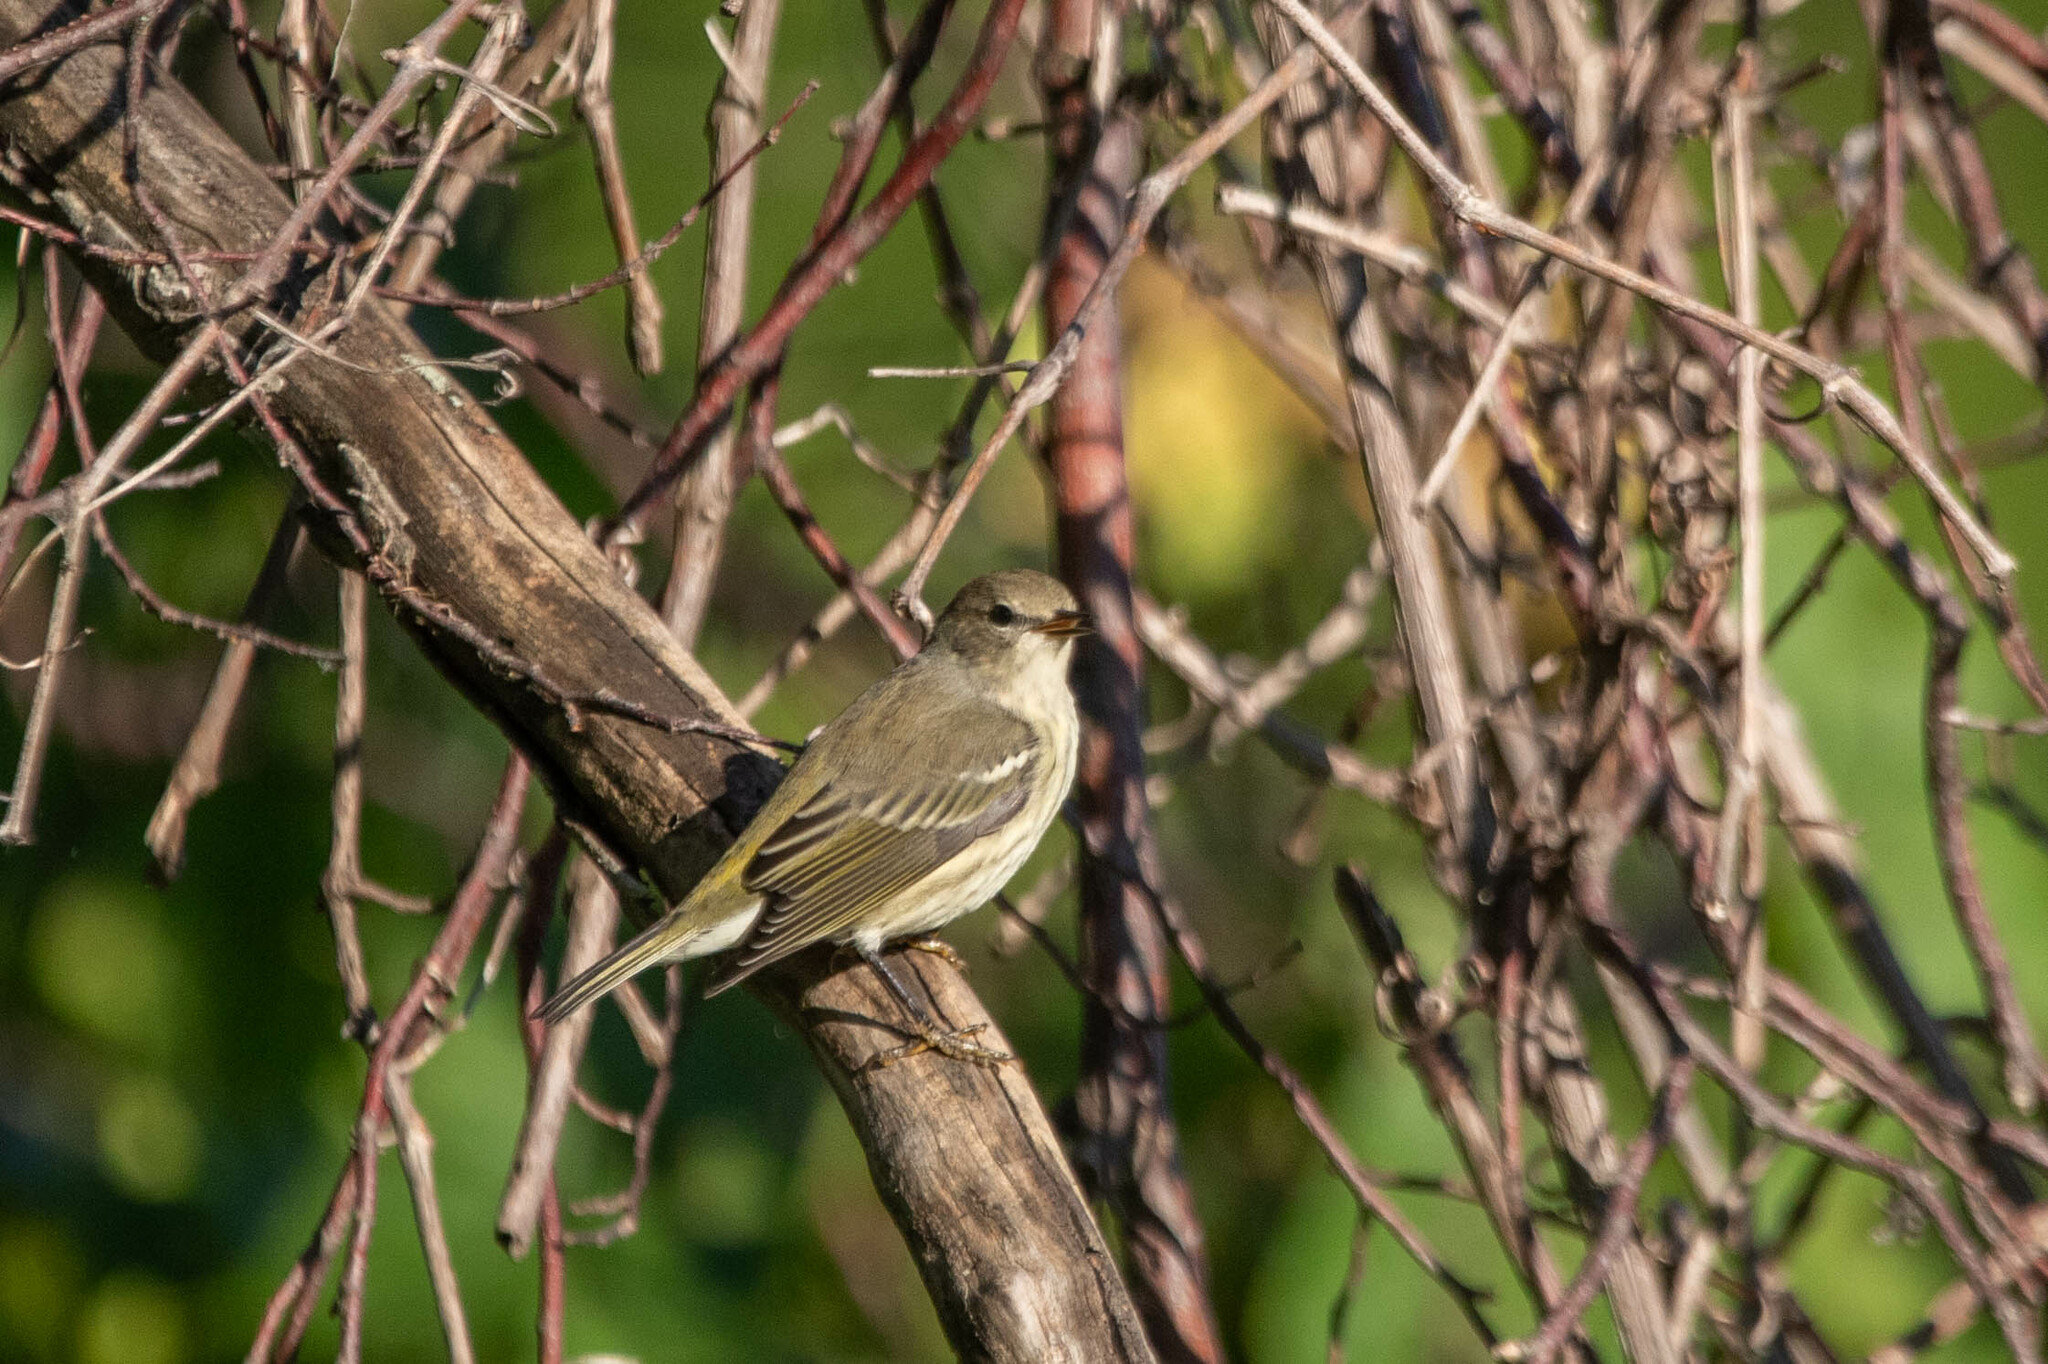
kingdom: Animalia
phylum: Chordata
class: Aves
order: Passeriformes
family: Parulidae
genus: Setophaga
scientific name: Setophaga tigrina
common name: Cape may warbler
